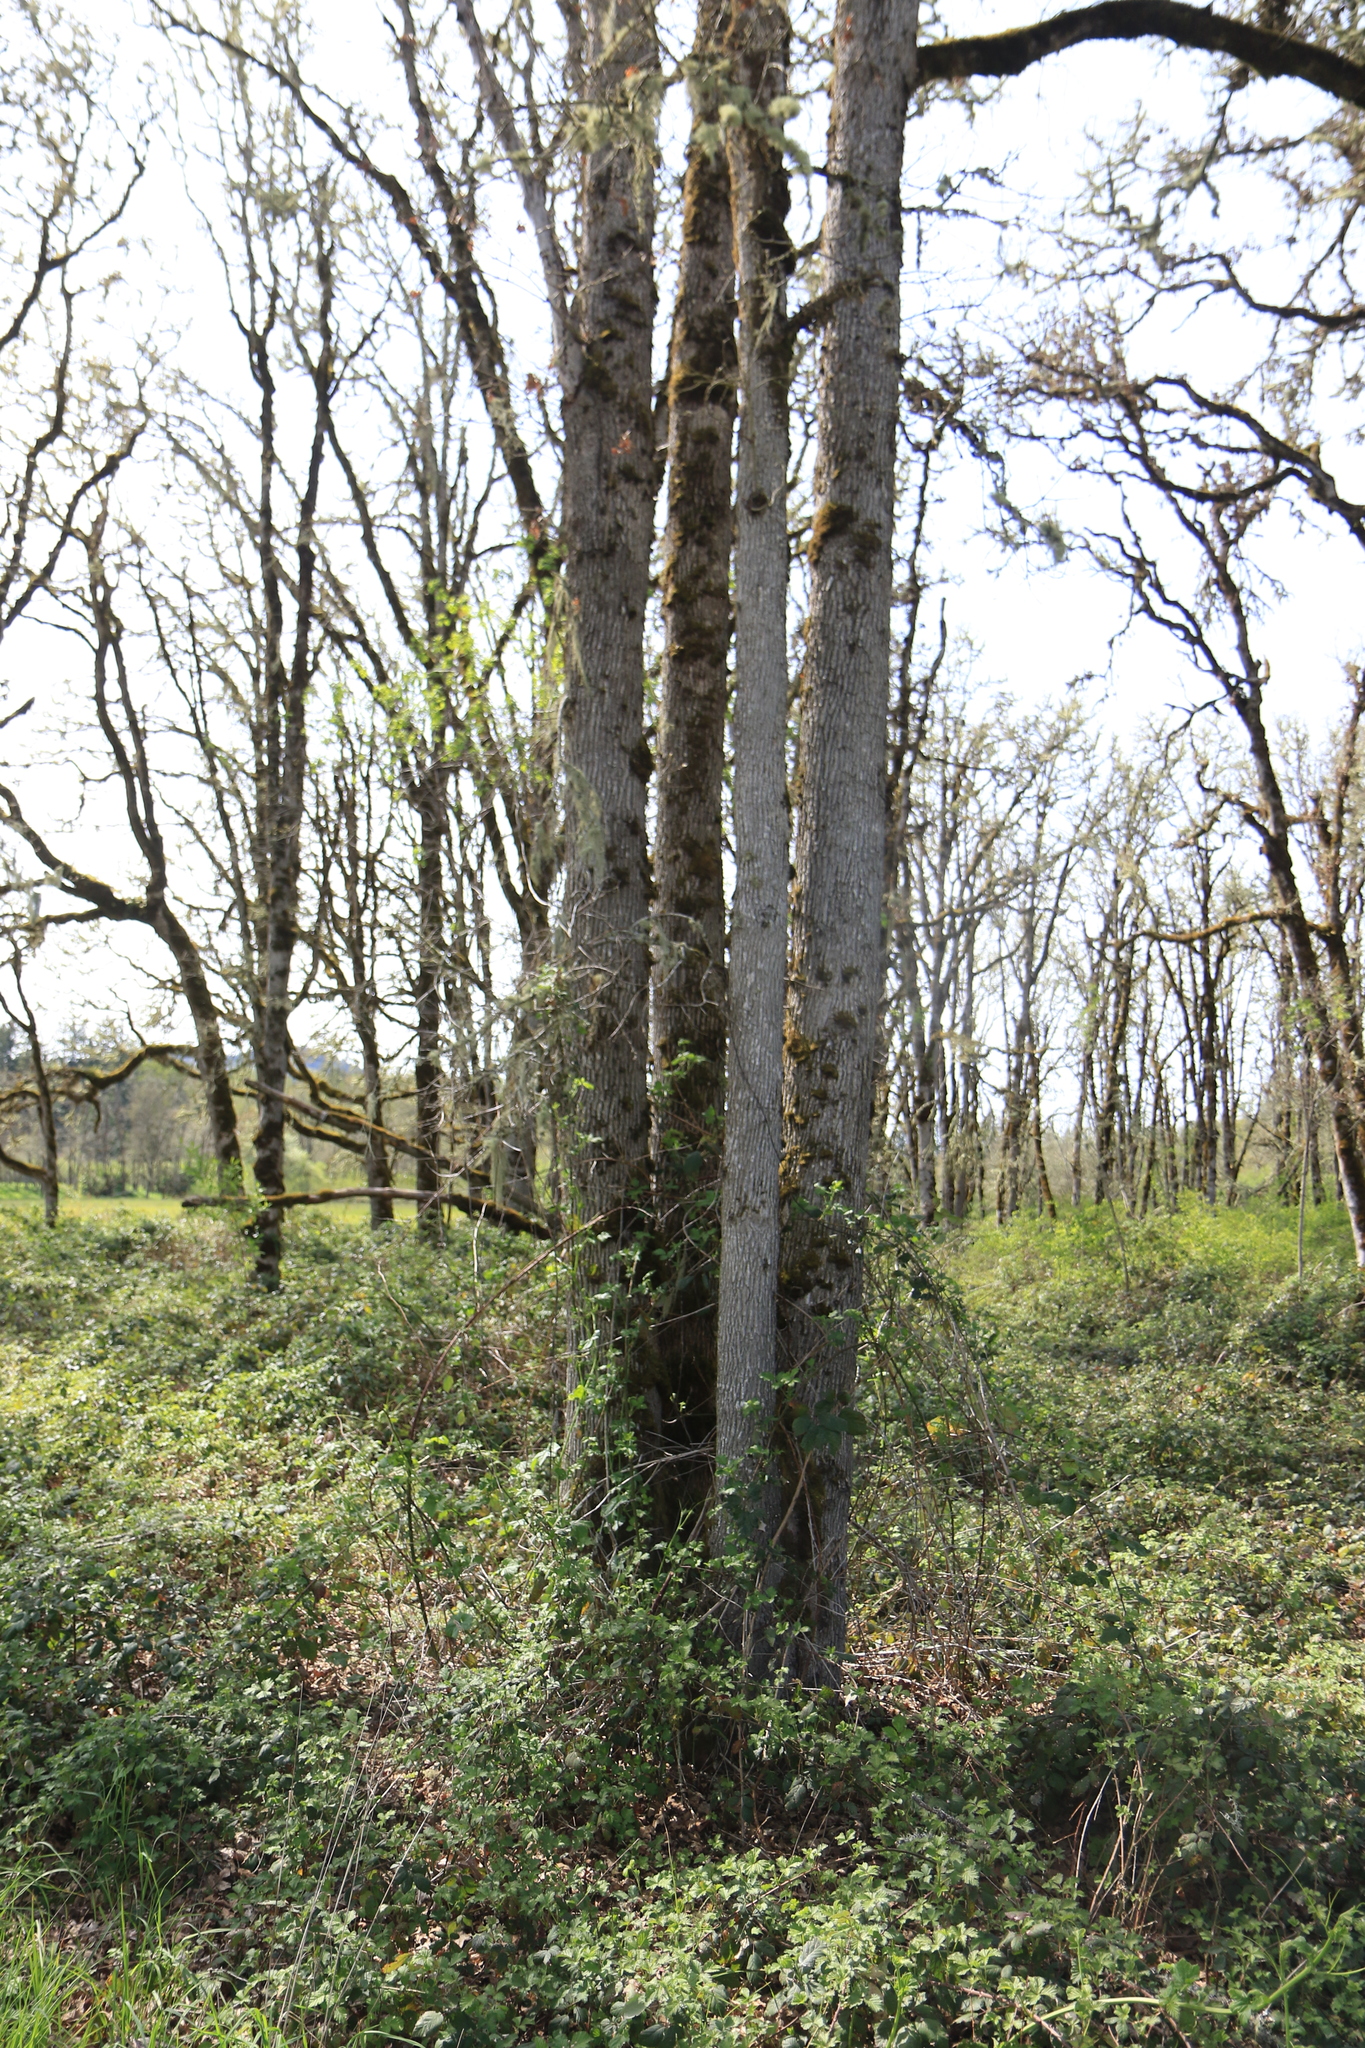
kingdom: Plantae
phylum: Tracheophyta
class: Magnoliopsida
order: Fagales
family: Fagaceae
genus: Quercus
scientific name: Quercus garryana
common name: Garry oak
